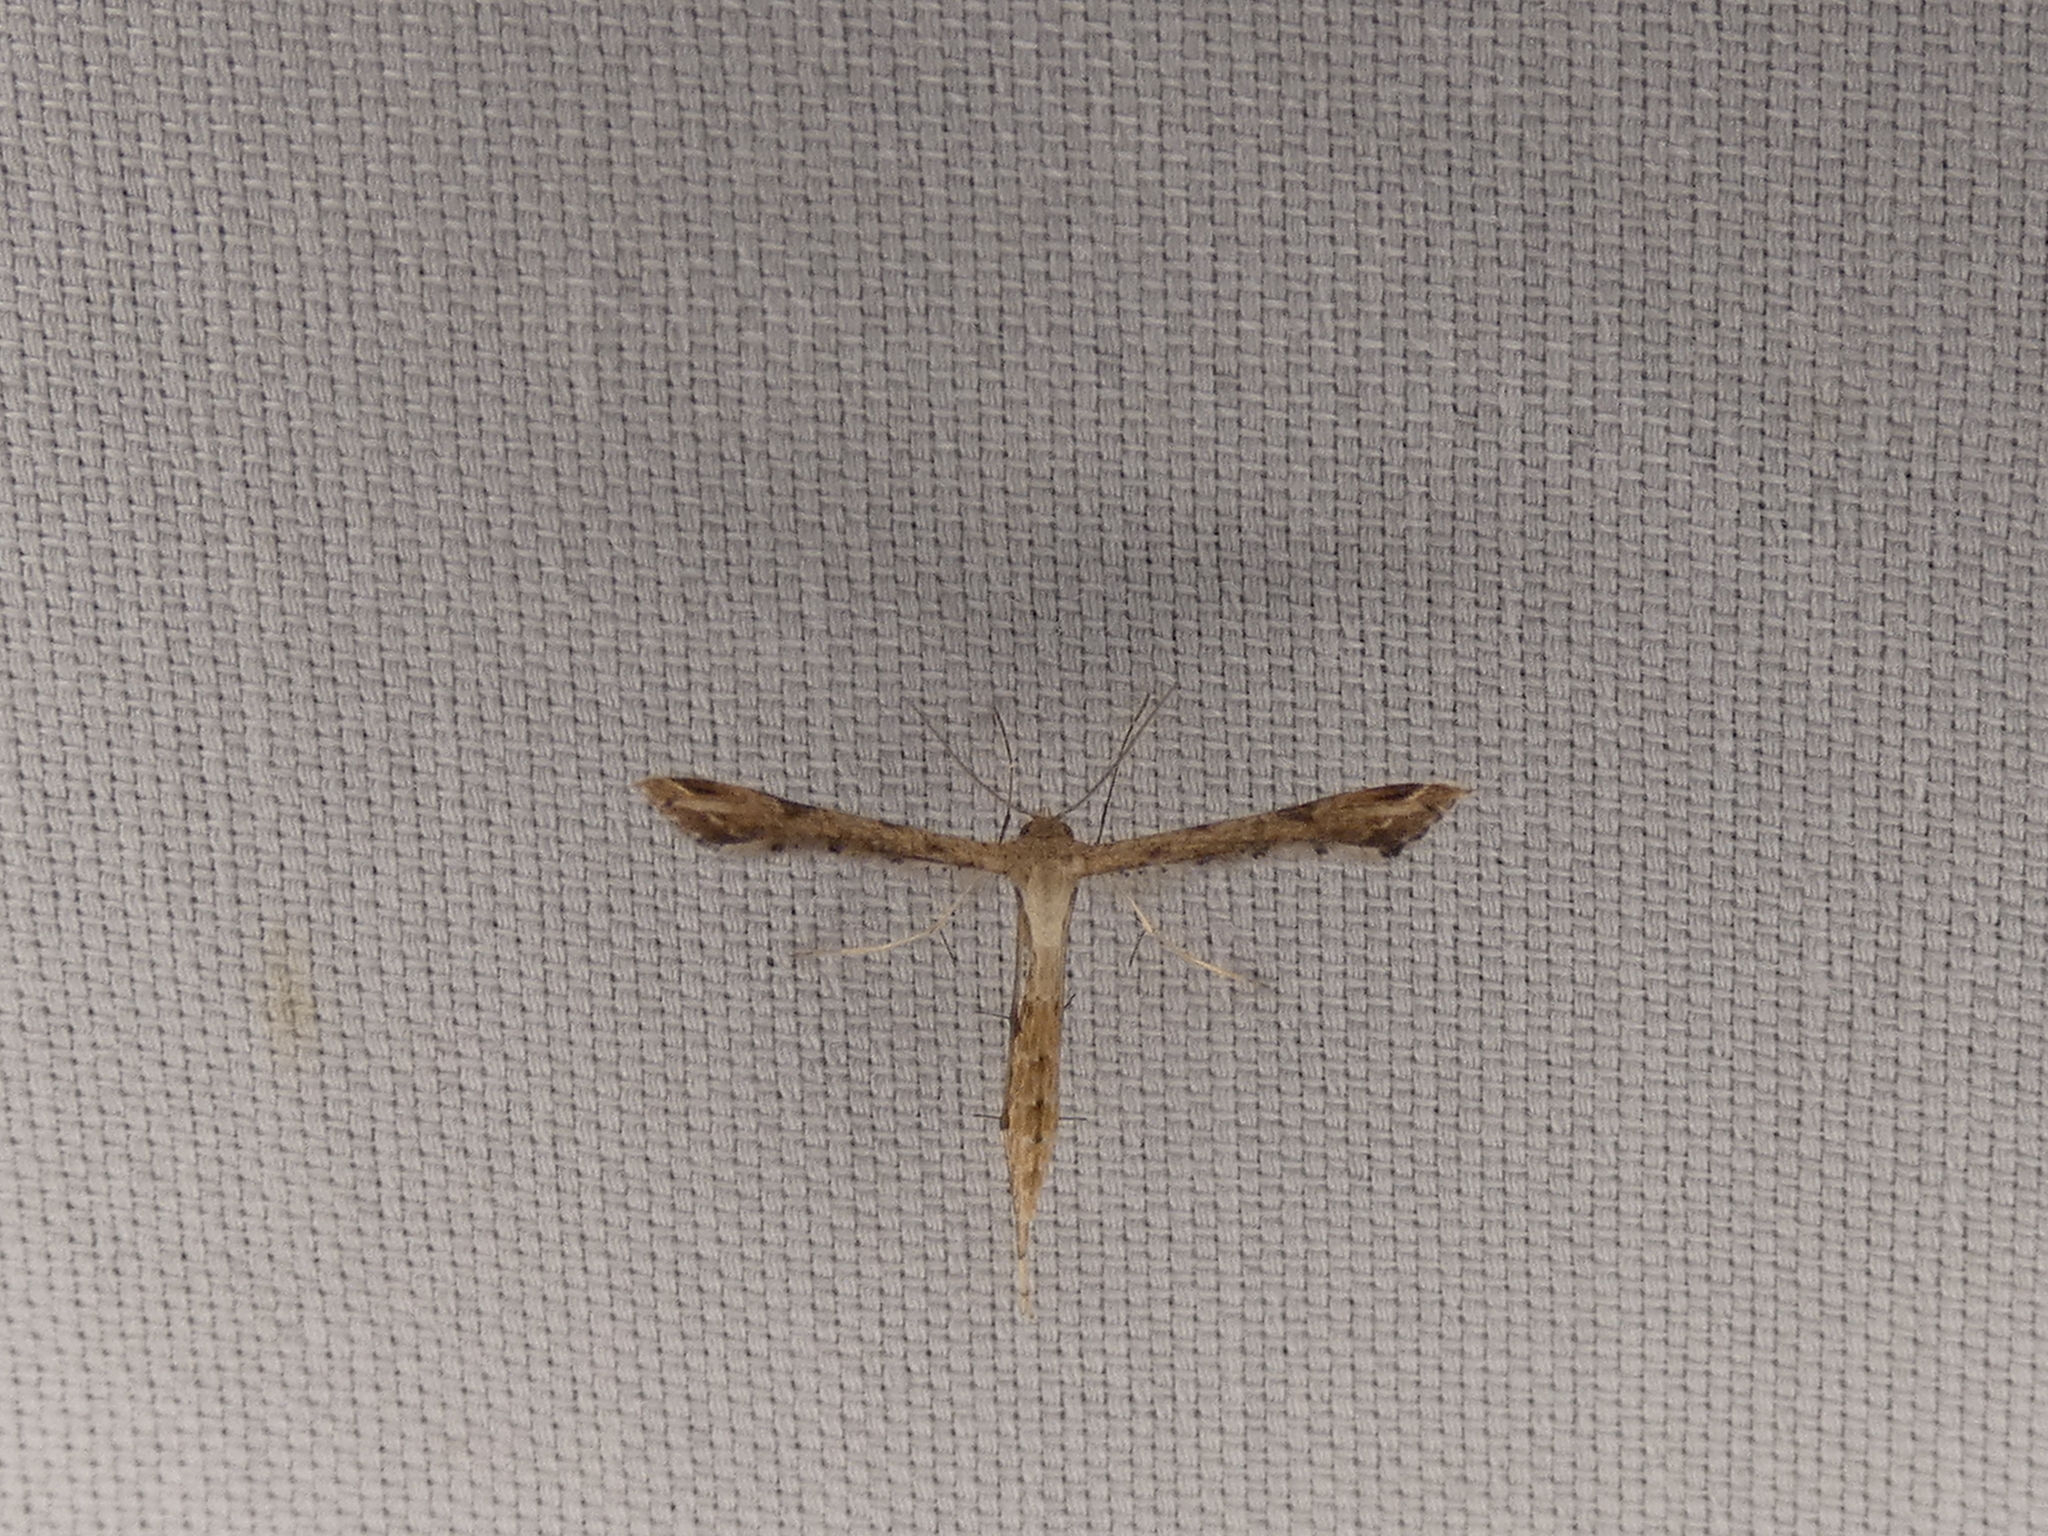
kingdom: Animalia
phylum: Arthropoda
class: Insecta
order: Lepidoptera
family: Pterophoridae
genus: Stenoptilodes
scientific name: Stenoptilodes
